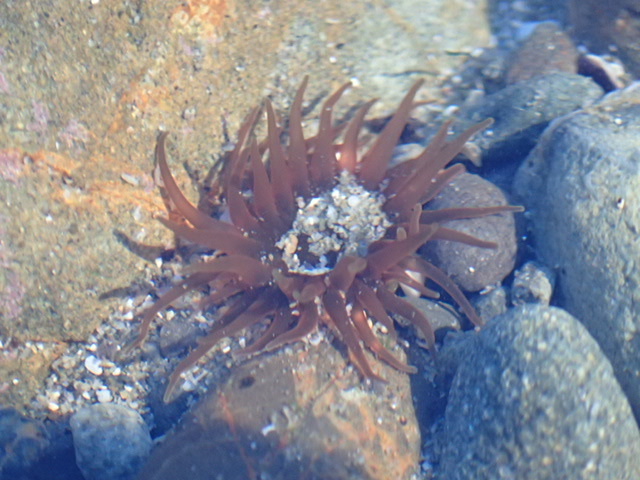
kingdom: Animalia
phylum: Cnidaria
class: Anthozoa
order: Actiniaria
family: Actiniidae
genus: Isactinia
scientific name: Isactinia olivacea
